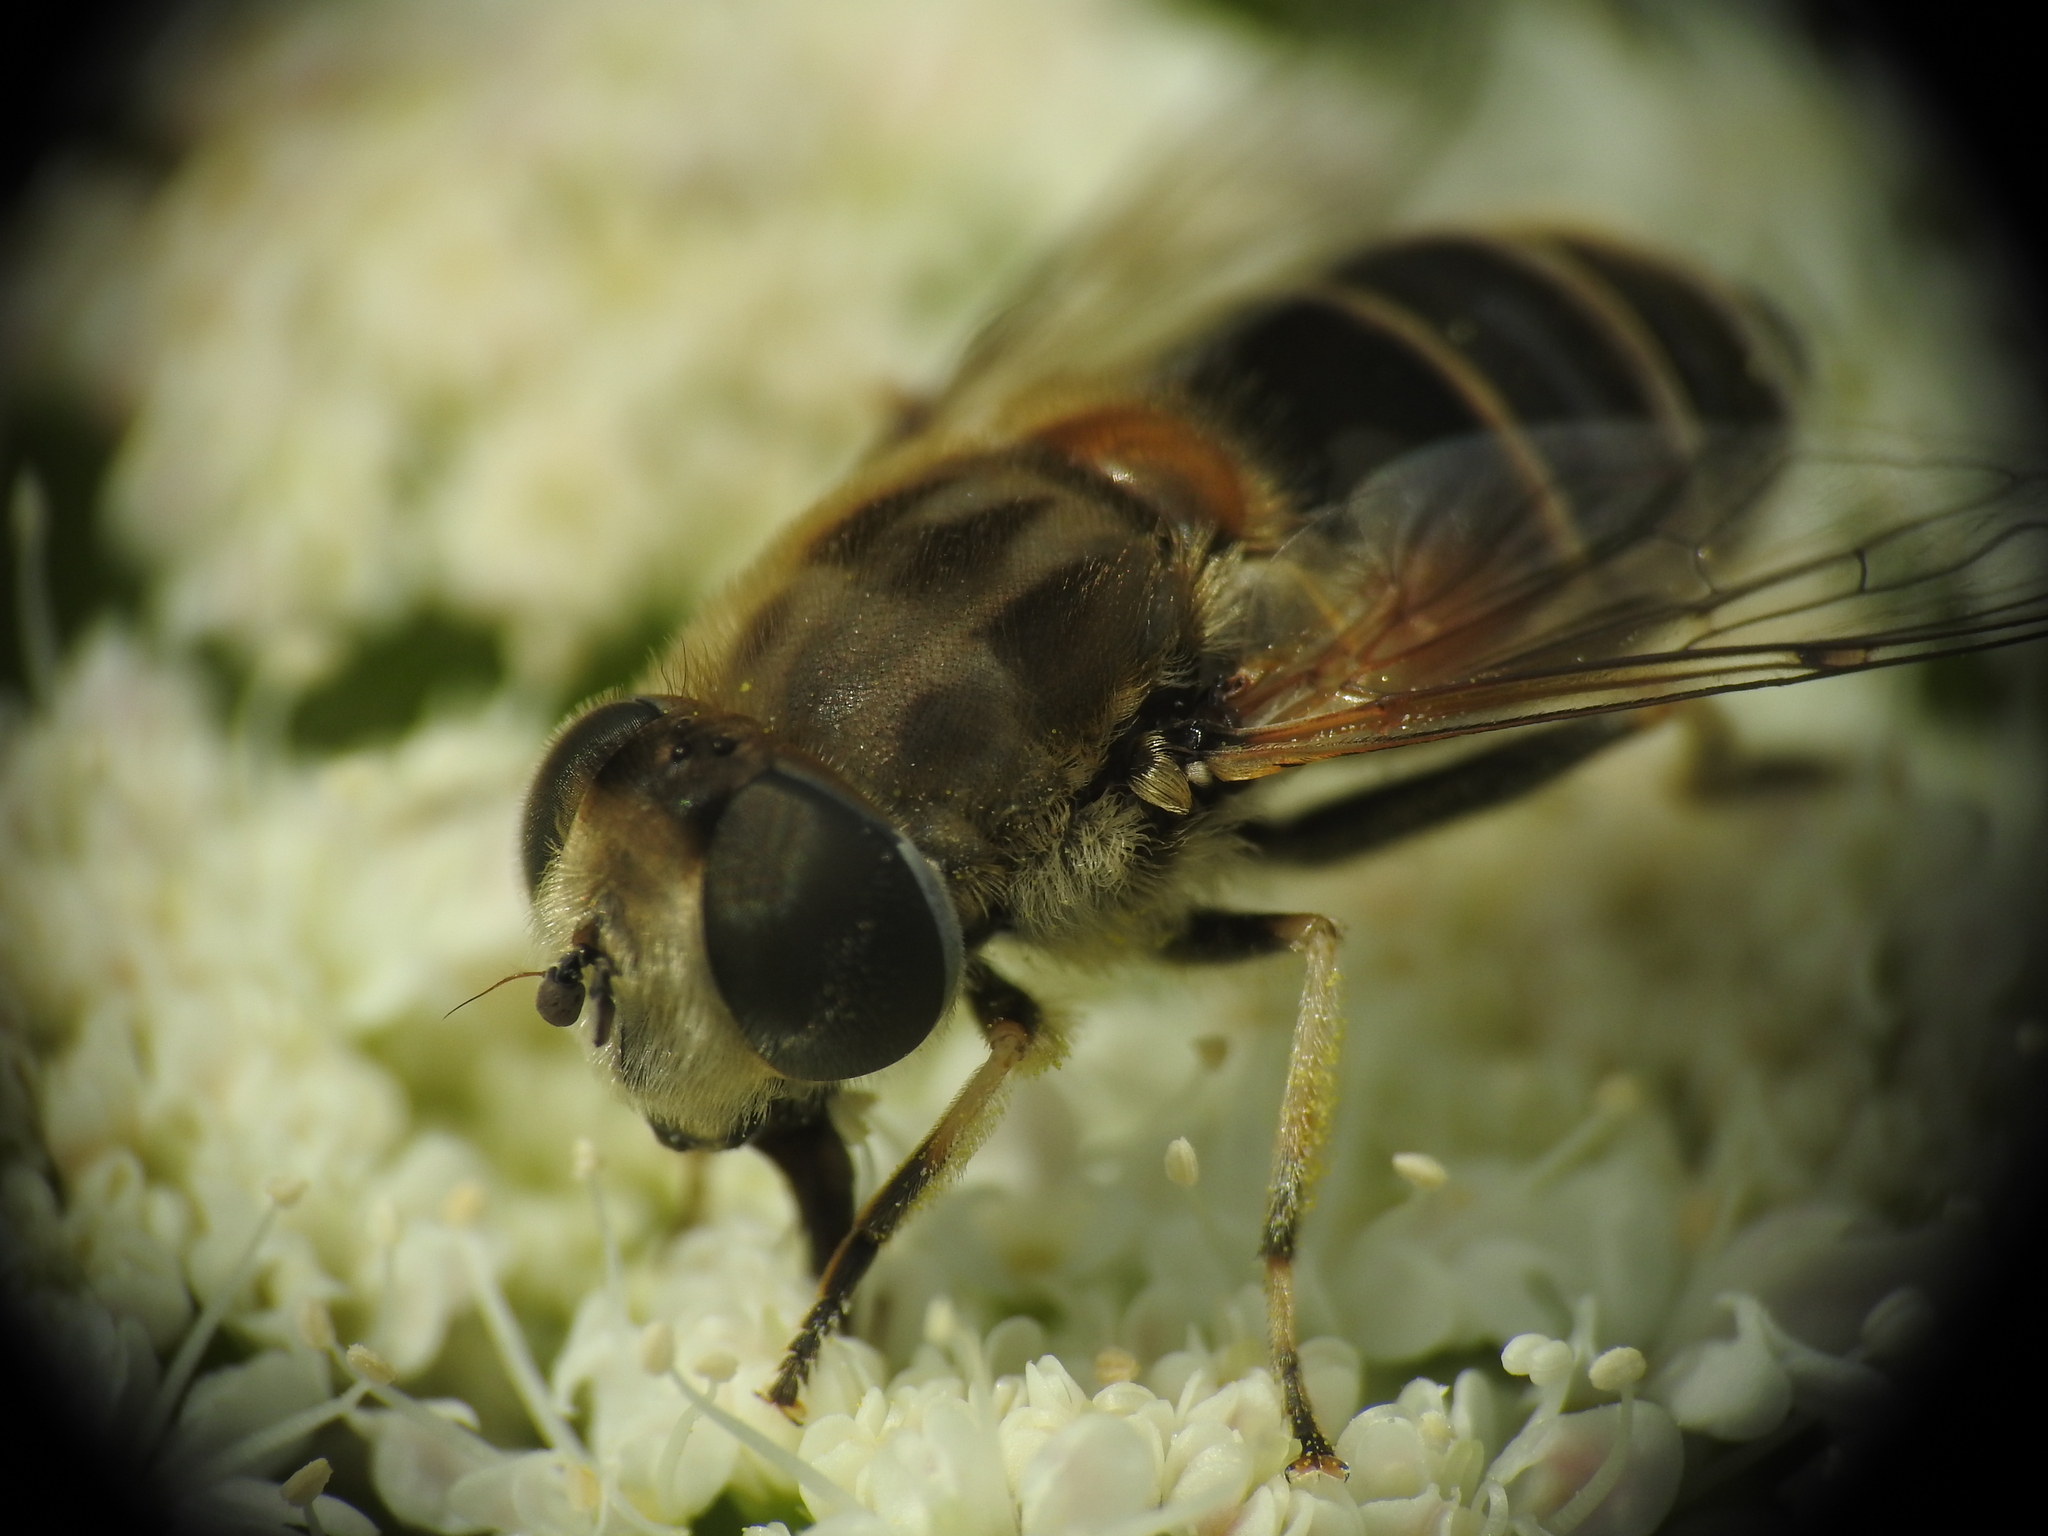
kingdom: Animalia
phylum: Arthropoda
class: Insecta
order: Diptera
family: Syrphidae
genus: Eristalis
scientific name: Eristalis arbustorum
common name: Hover fly
